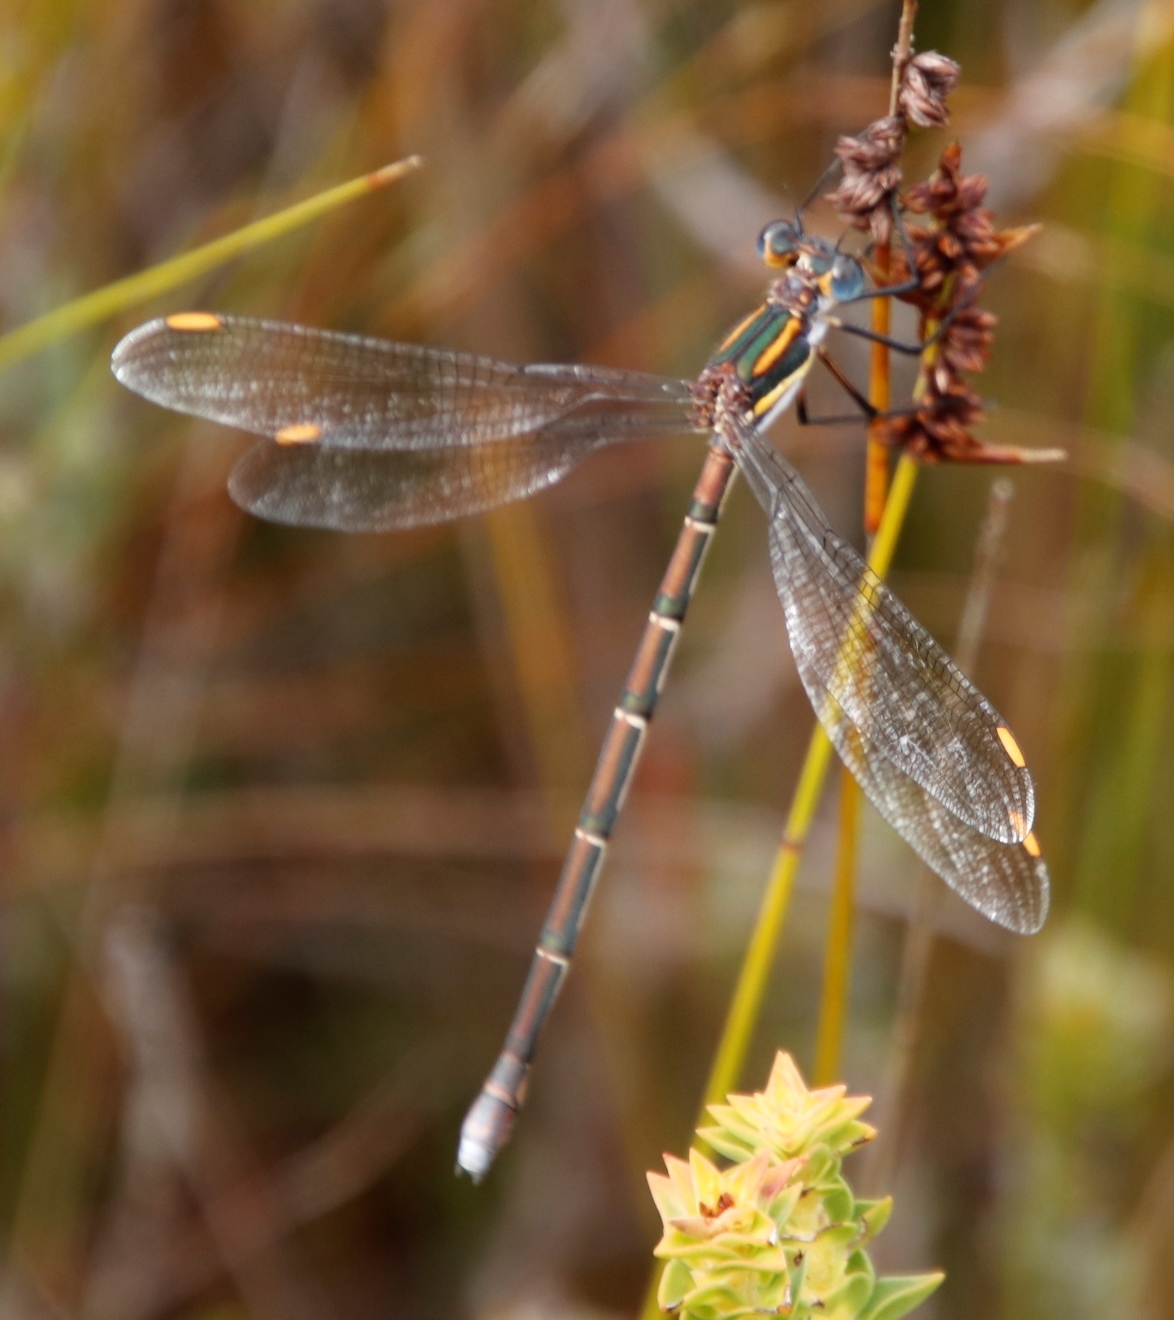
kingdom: Animalia
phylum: Arthropoda
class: Insecta
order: Odonata
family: Synlestidae
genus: Chlorolestes
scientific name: Chlorolestes conspicuus
